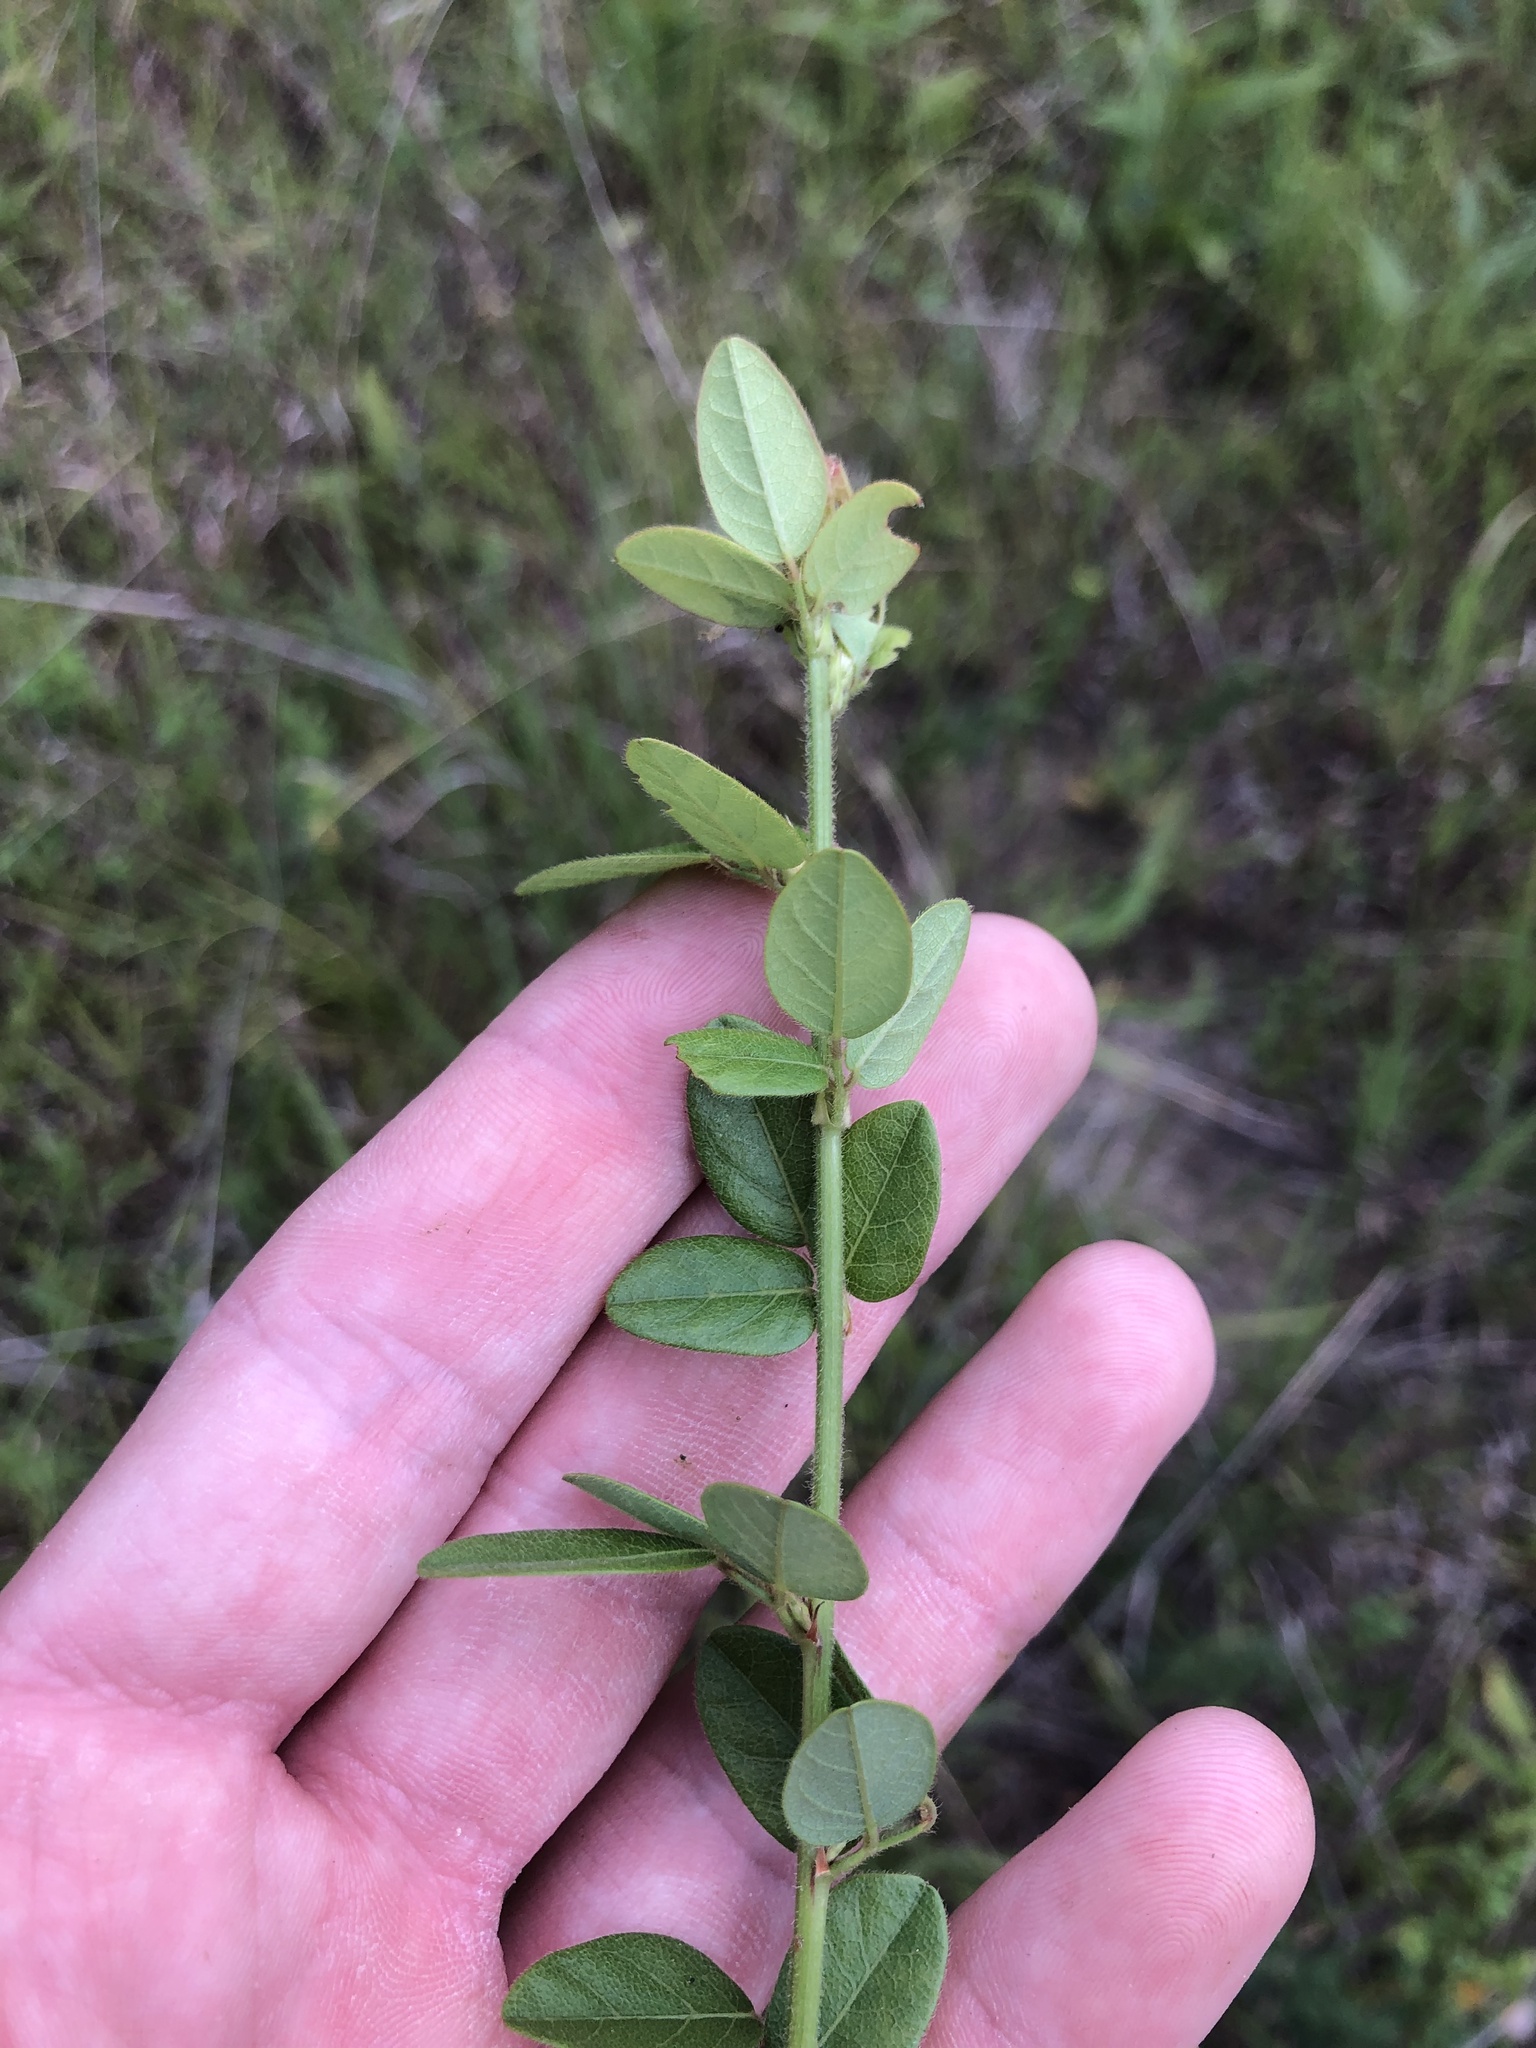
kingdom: Plantae
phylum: Tracheophyta
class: Magnoliopsida
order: Fabales
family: Fabaceae
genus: Desmodium
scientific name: Desmodium ciliare
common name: Hairy small-leaf ticktrefoil
